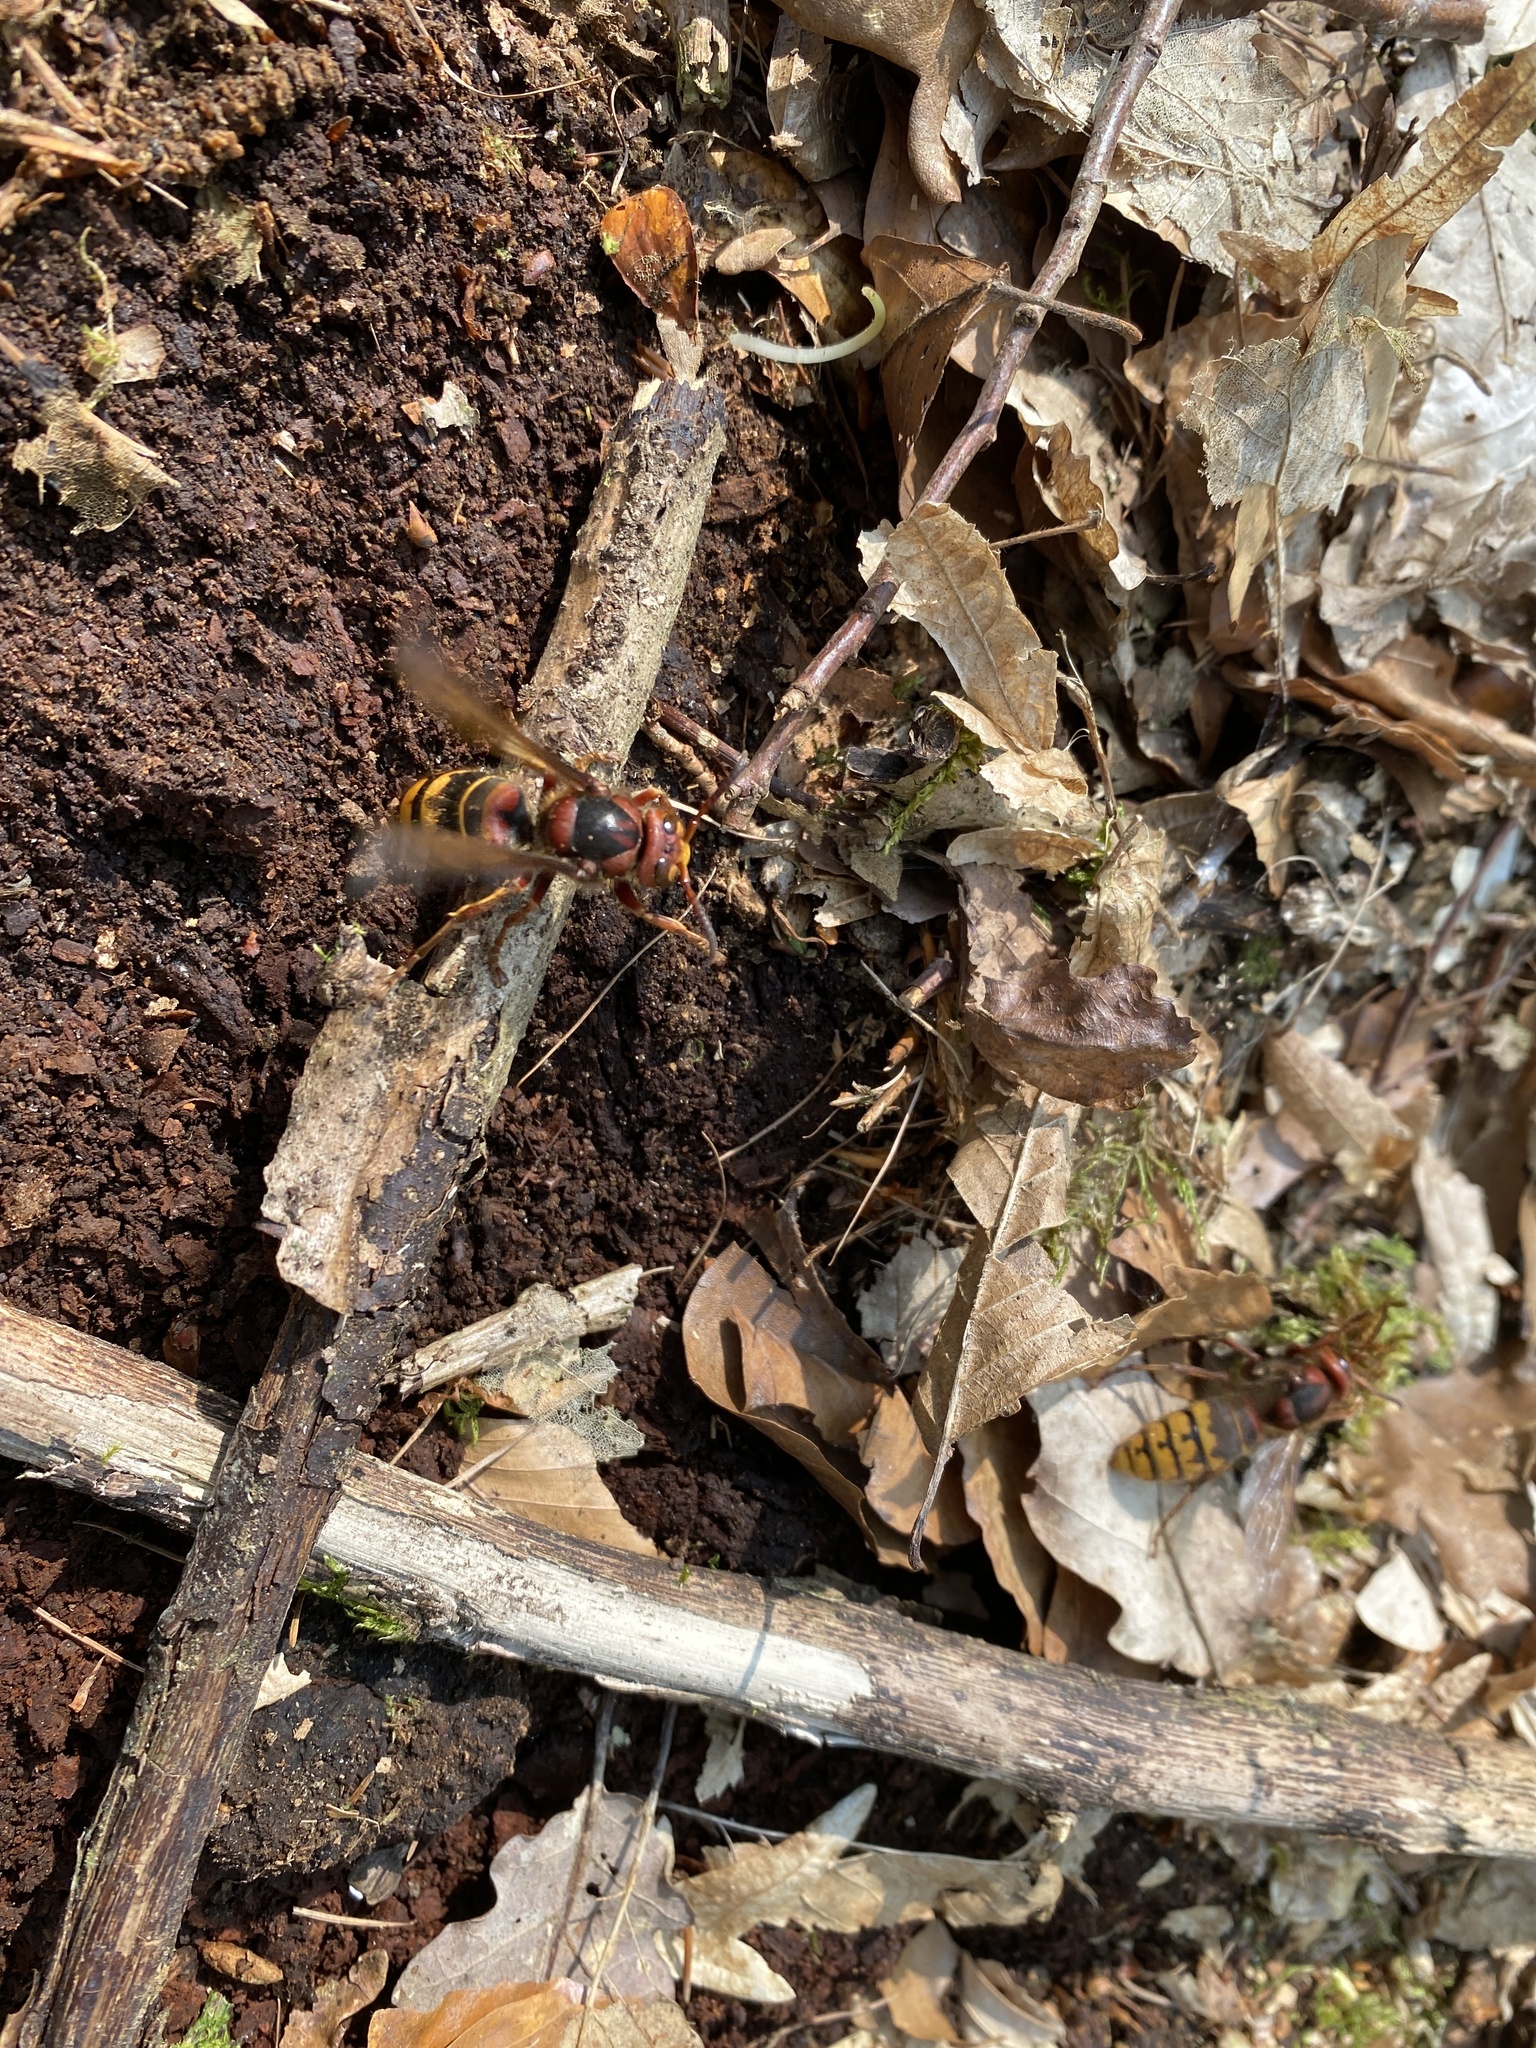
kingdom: Animalia
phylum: Arthropoda
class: Insecta
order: Hymenoptera
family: Vespidae
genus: Vespa
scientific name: Vespa crabro
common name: Hornet
